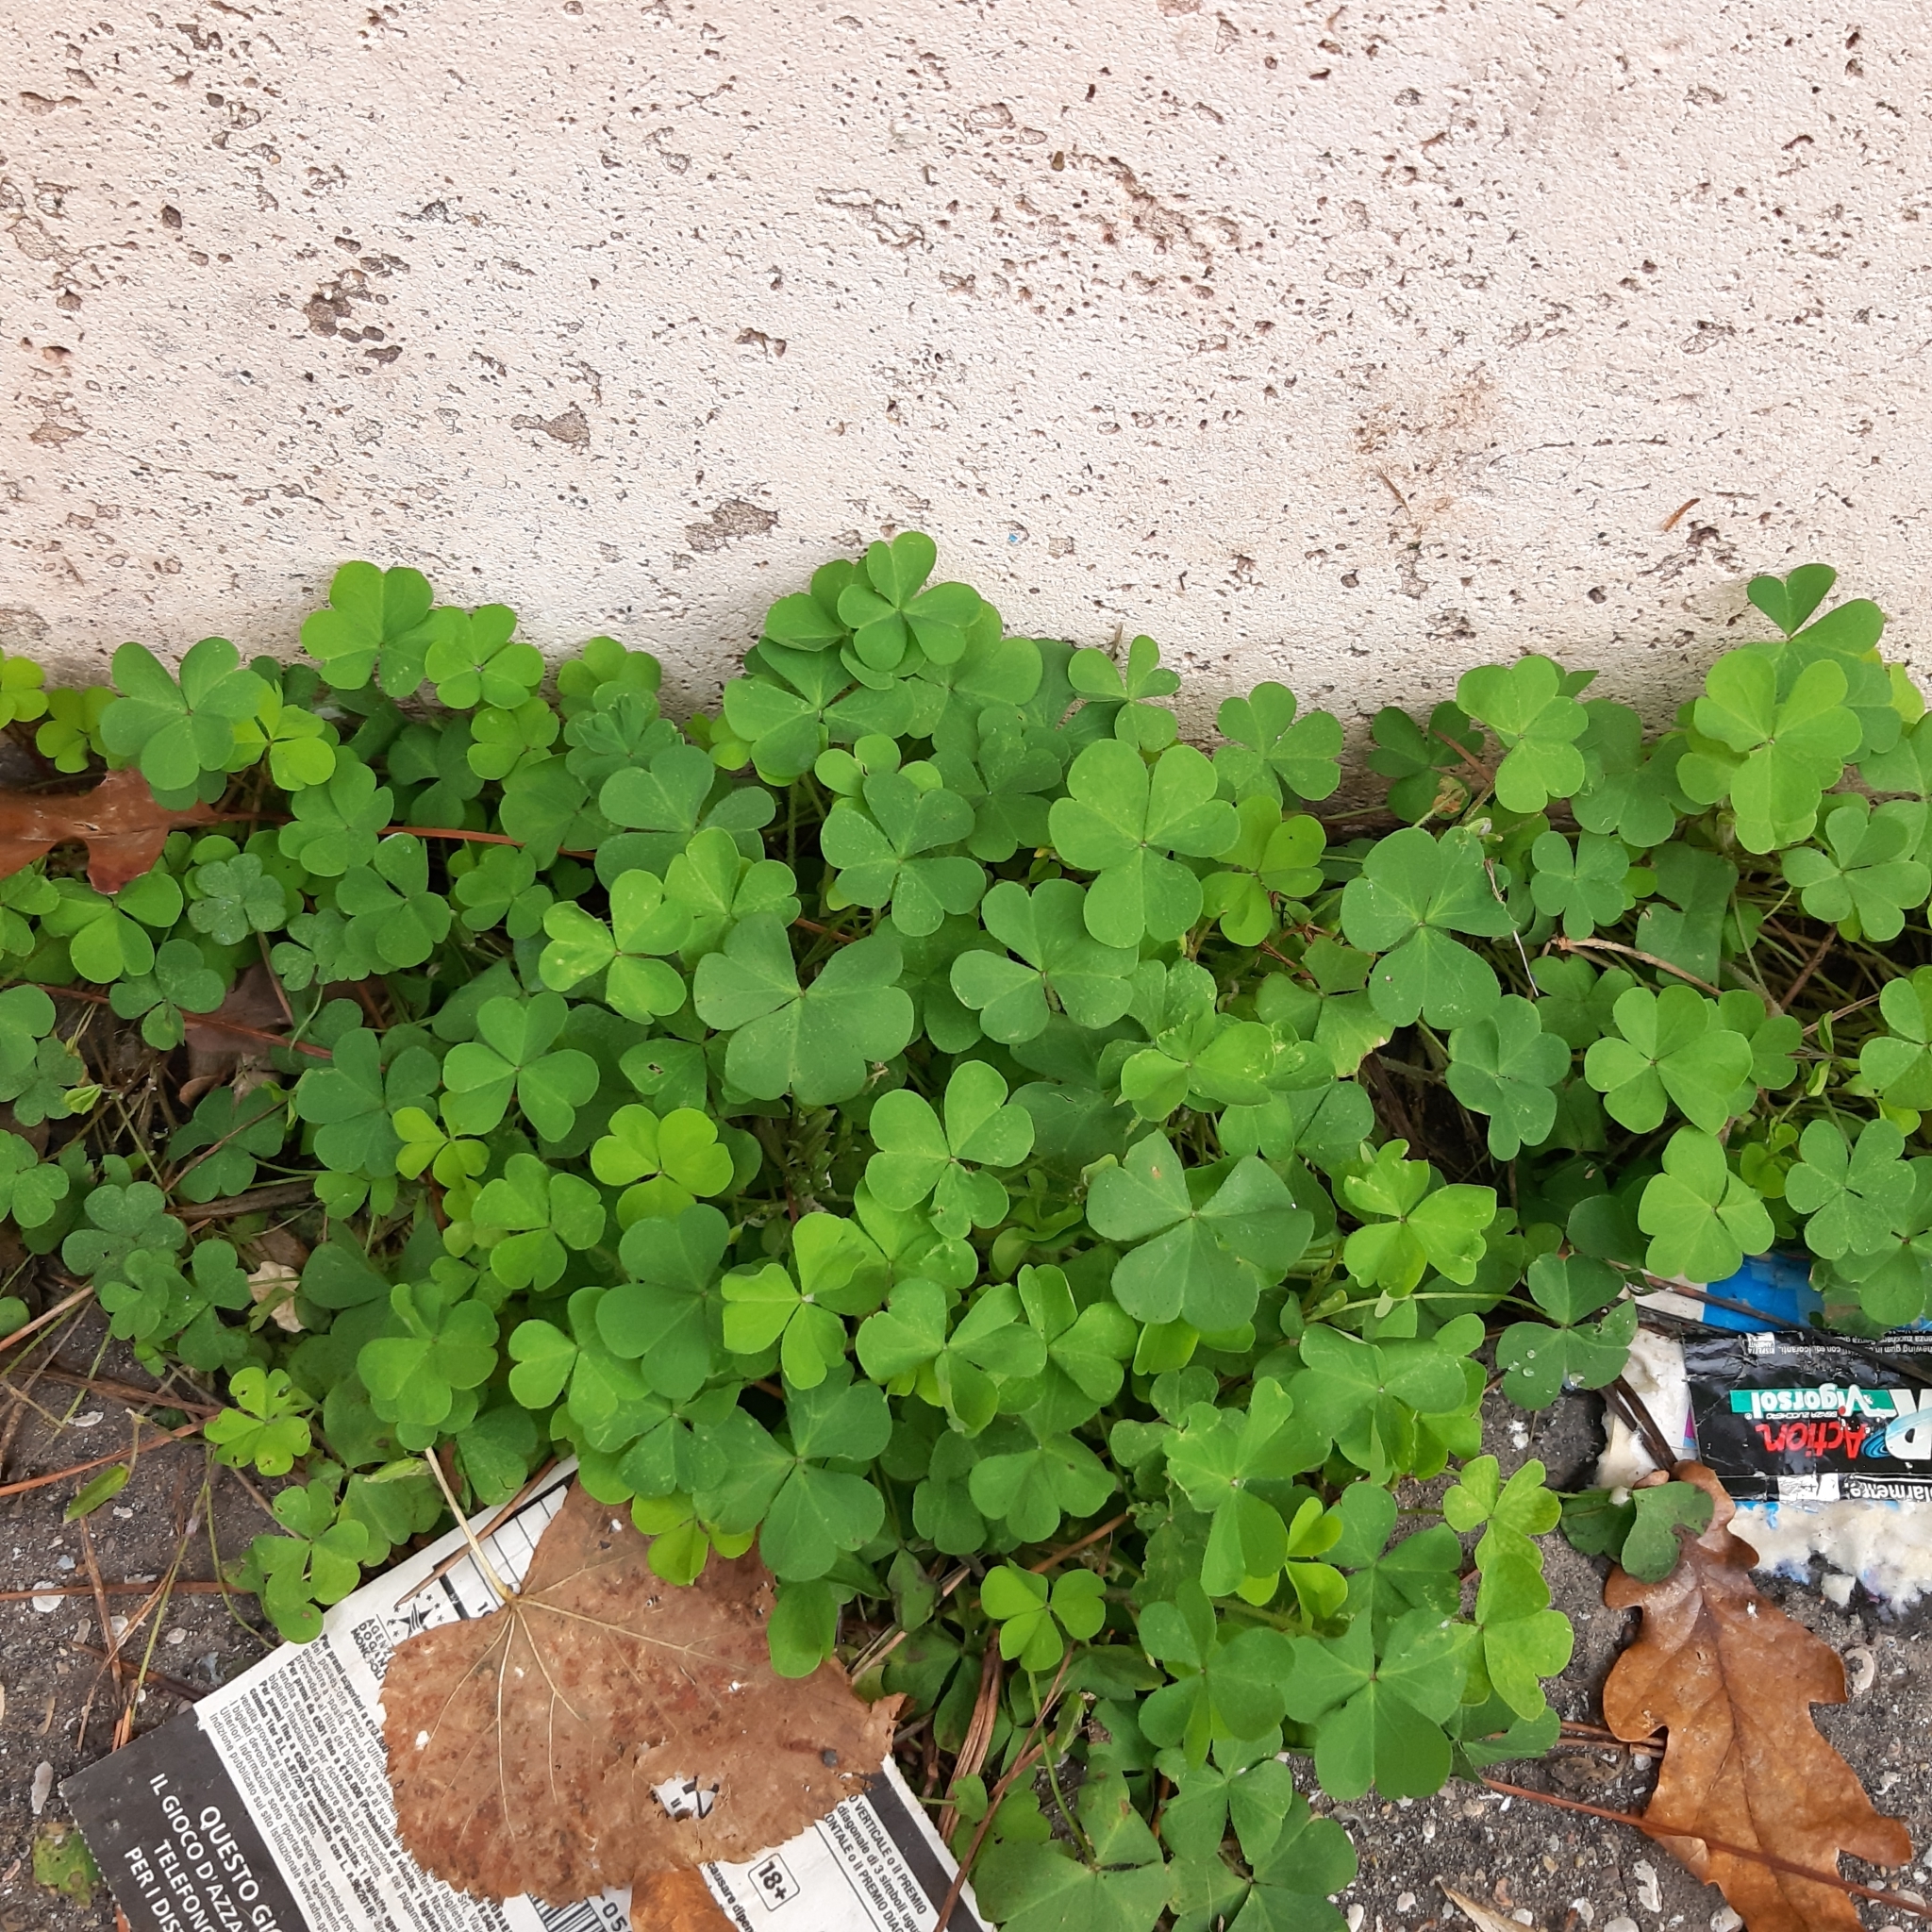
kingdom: Plantae
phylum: Tracheophyta
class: Magnoliopsida
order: Oxalidales
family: Oxalidaceae
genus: Oxalis
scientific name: Oxalis corniculata
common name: Procumbent yellow-sorrel
